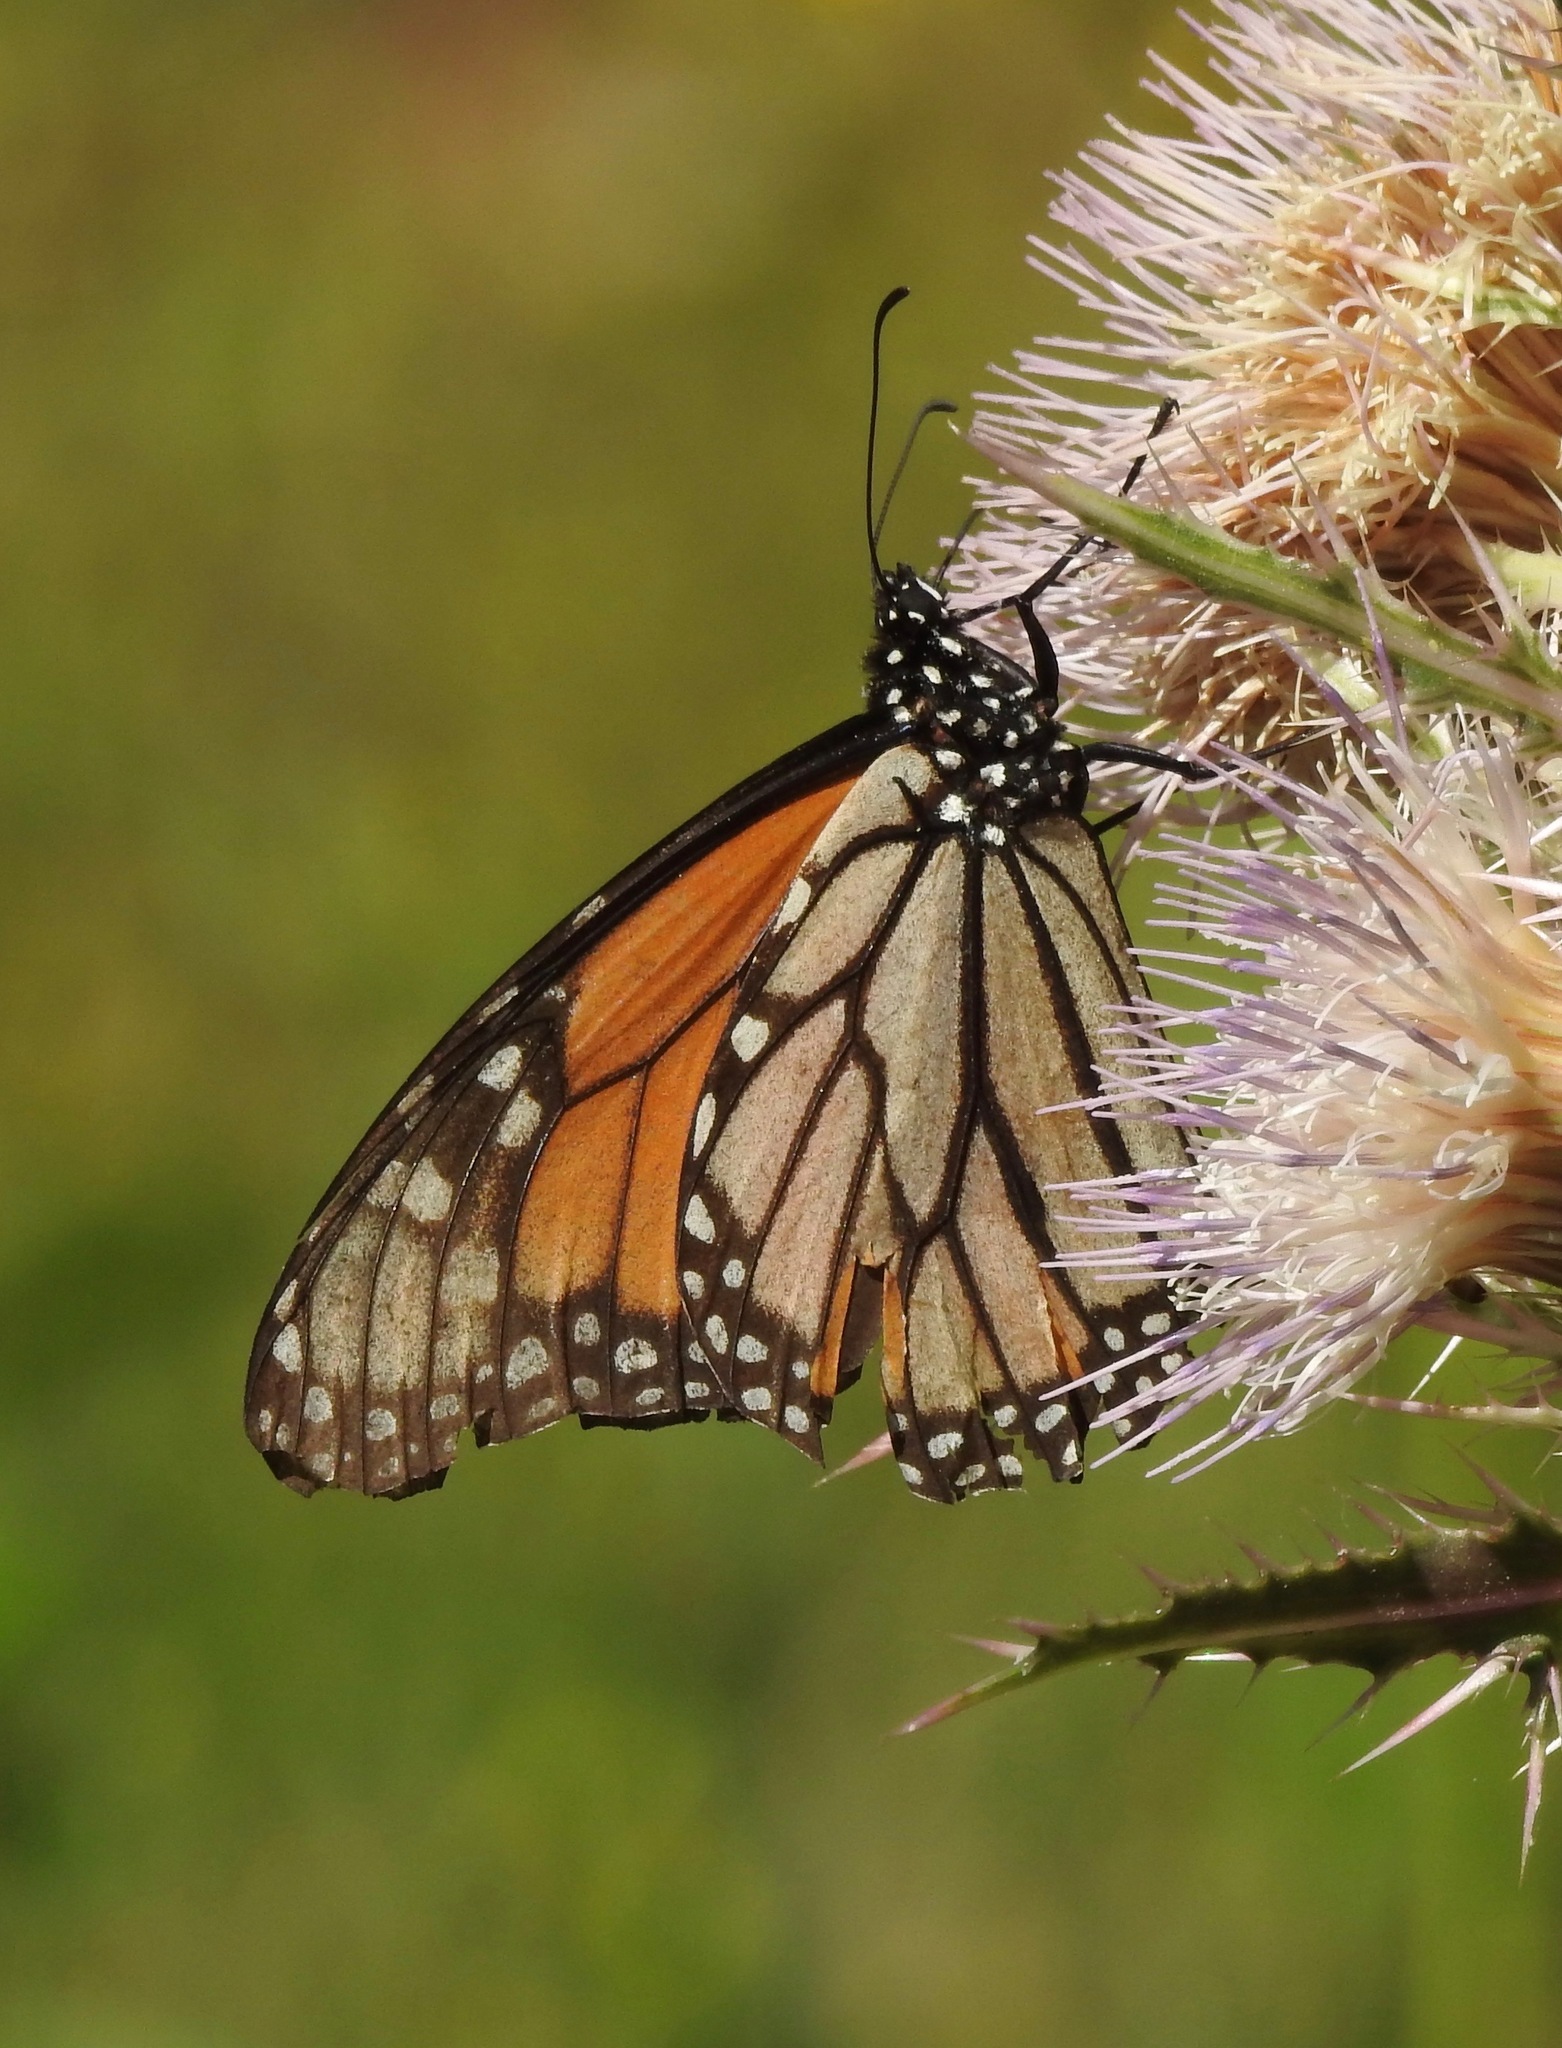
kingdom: Animalia
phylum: Arthropoda
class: Insecta
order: Lepidoptera
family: Nymphalidae
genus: Danaus
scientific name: Danaus plexippus
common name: Monarch
